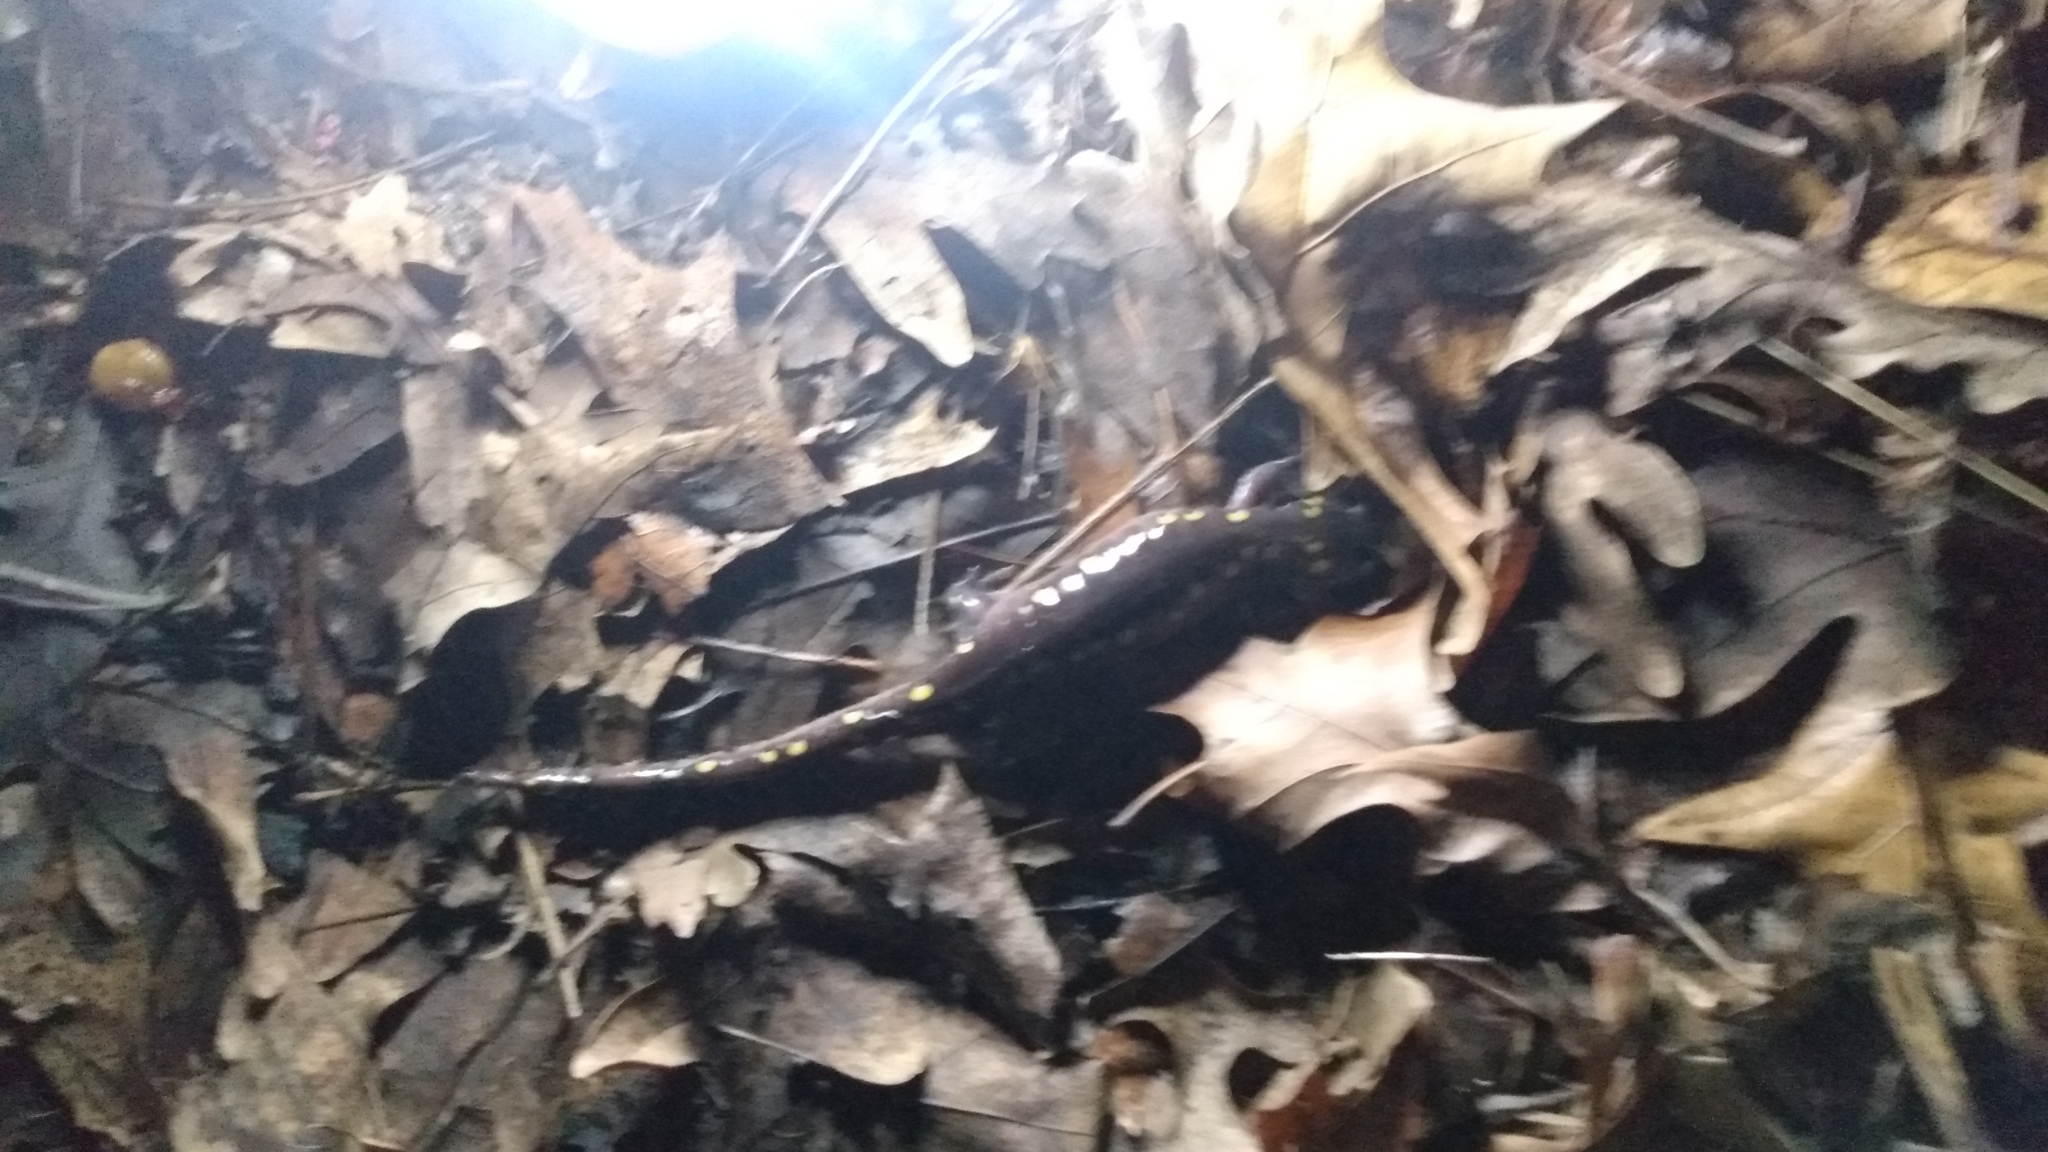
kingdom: Animalia
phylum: Chordata
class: Amphibia
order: Caudata
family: Ambystomatidae
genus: Ambystoma
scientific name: Ambystoma maculatum
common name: Spotted salamander
